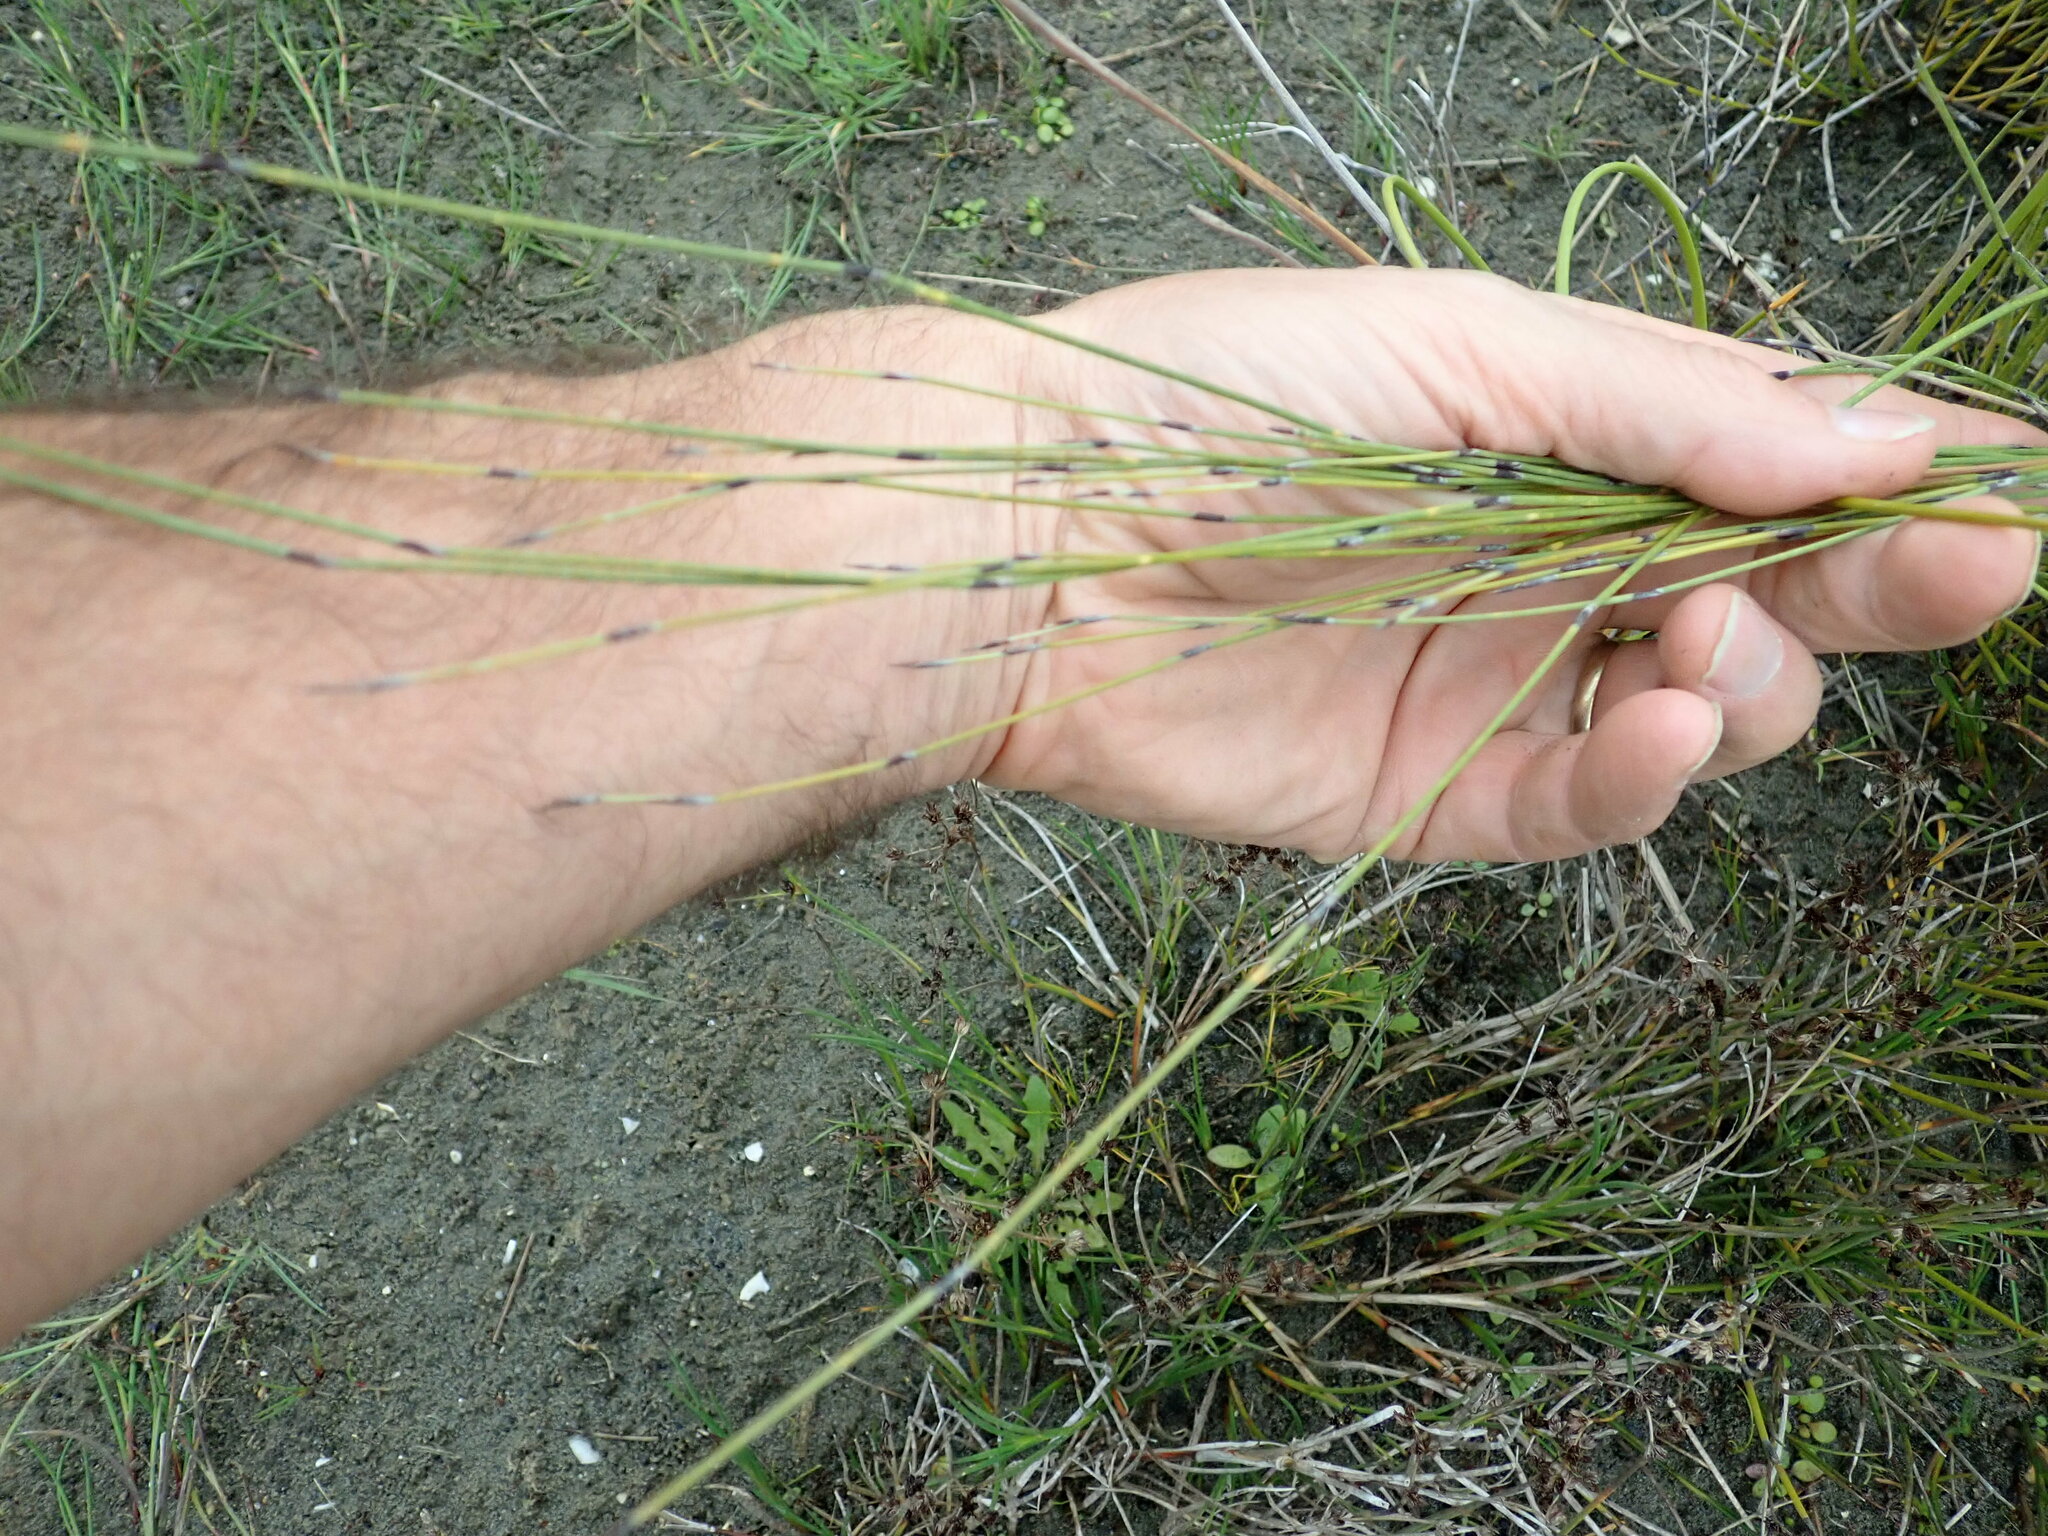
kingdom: Plantae
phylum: Tracheophyta
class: Liliopsida
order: Poales
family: Restionaceae
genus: Apodasmia
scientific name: Apodasmia similis
